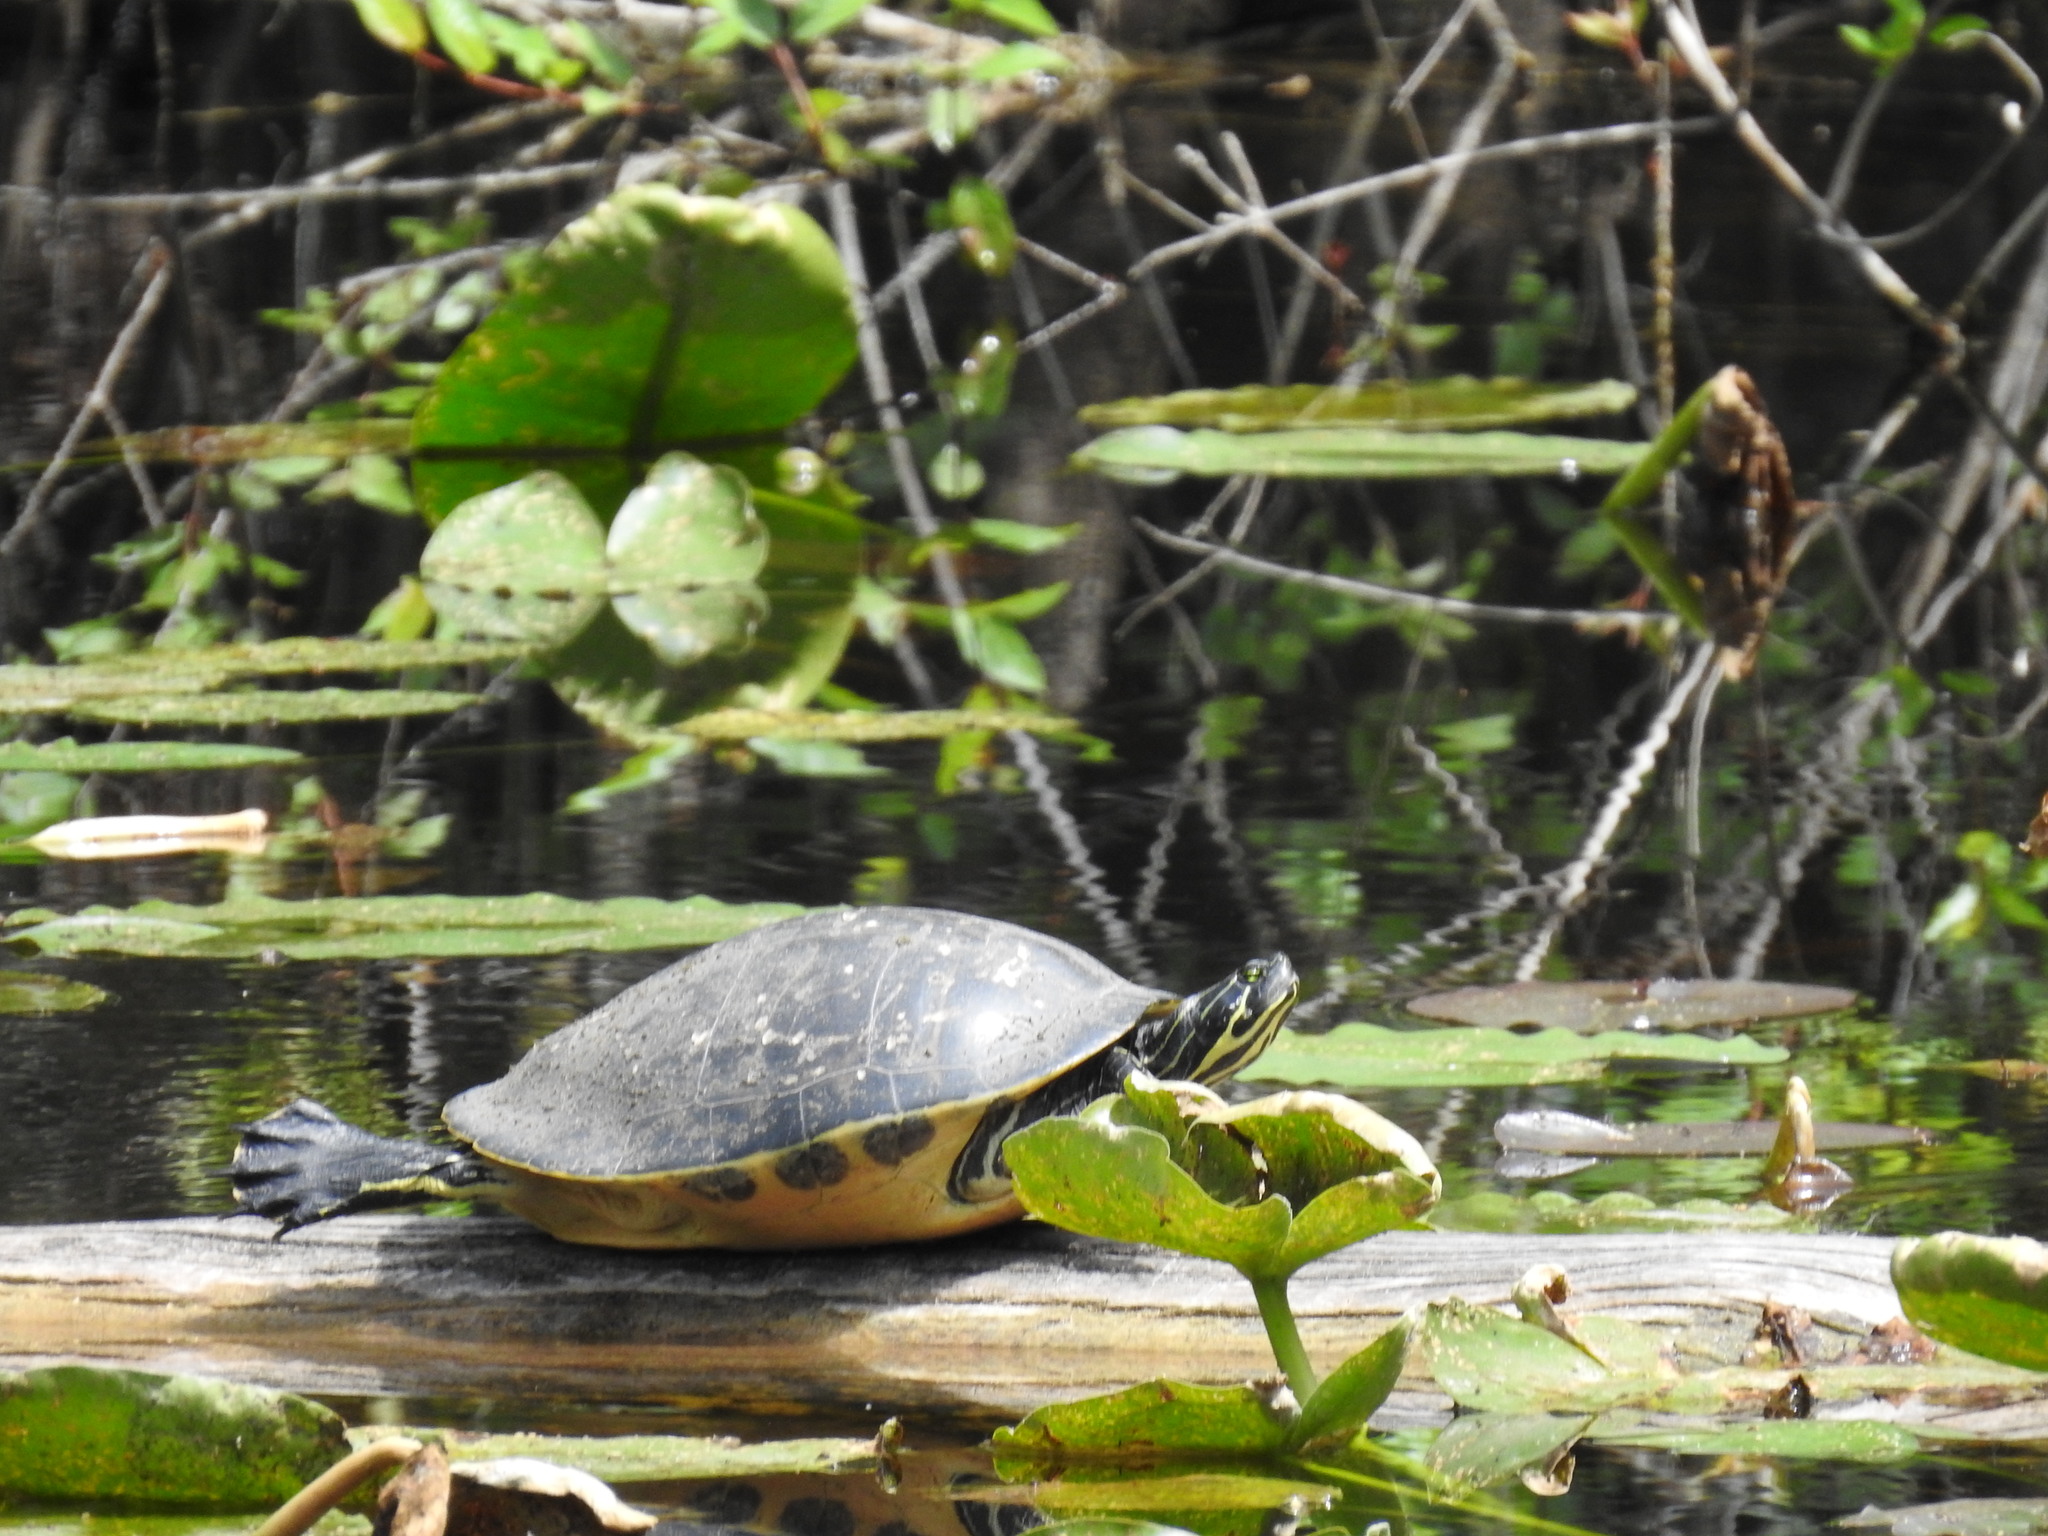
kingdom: Animalia
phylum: Chordata
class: Testudines
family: Emydidae
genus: Pseudemys
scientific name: Pseudemys peninsularis
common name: Peninsula cooter
